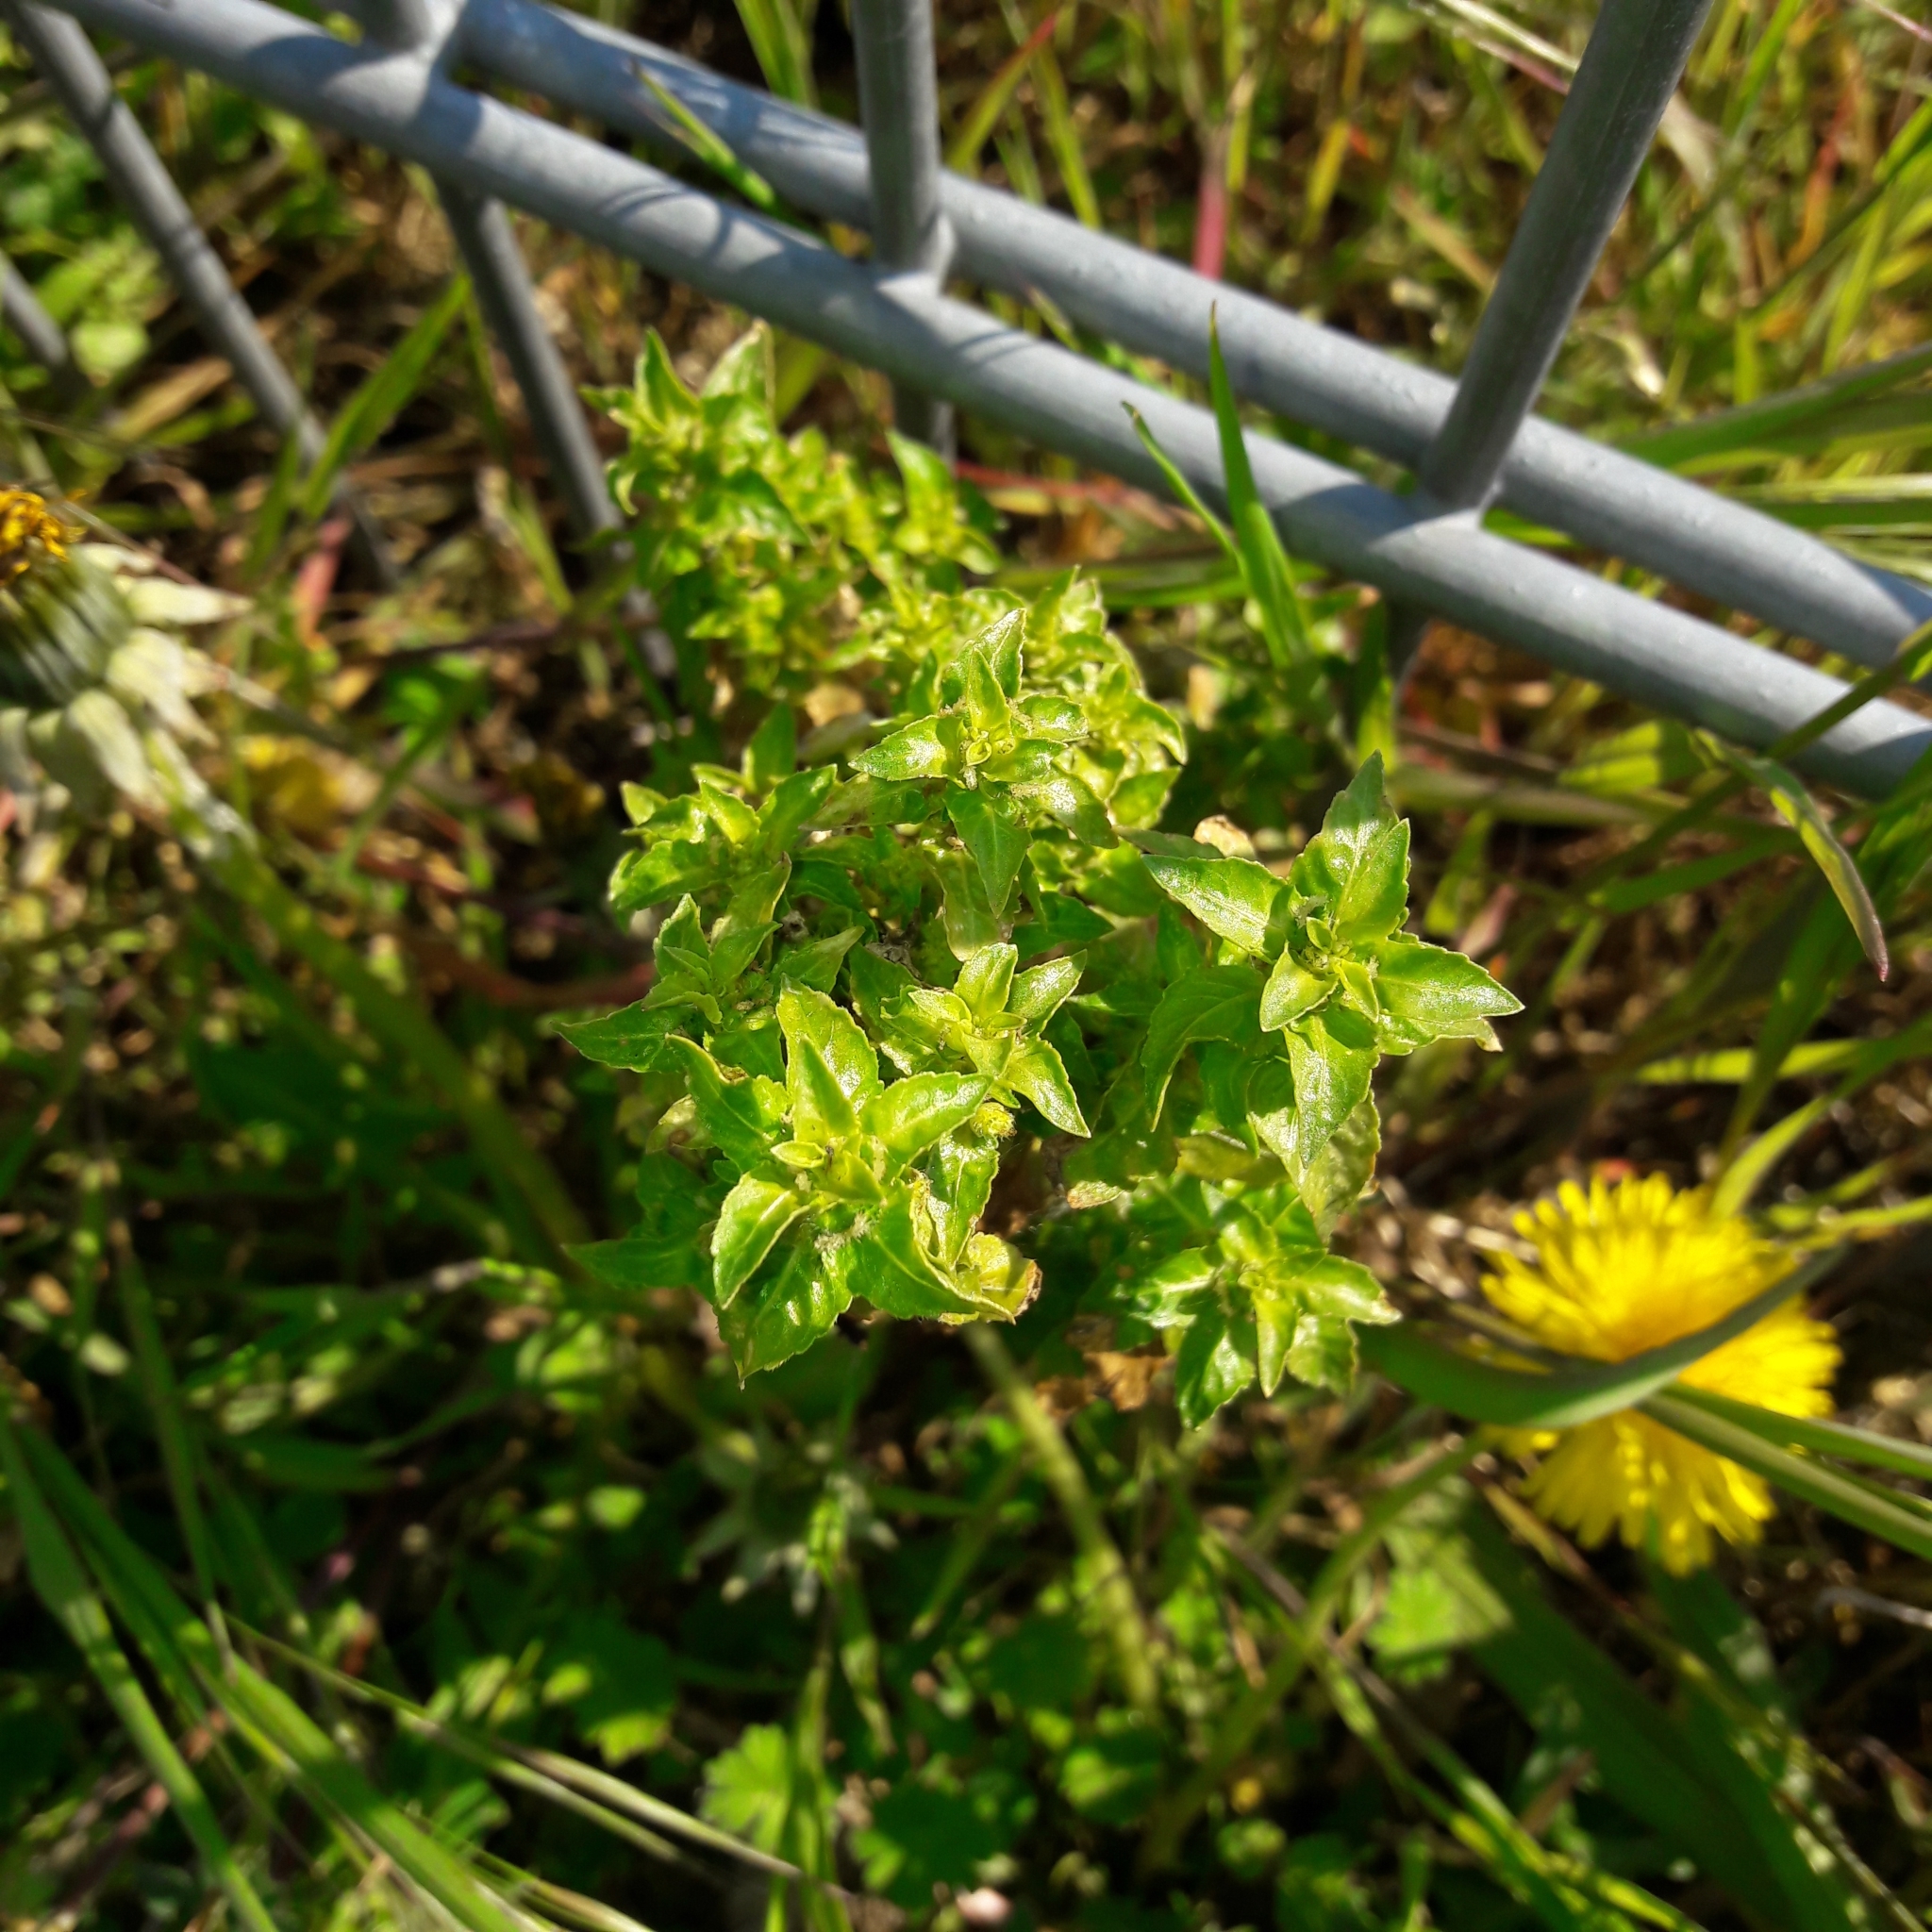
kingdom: Plantae
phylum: Tracheophyta
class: Magnoliopsida
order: Malpighiales
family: Euphorbiaceae
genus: Mercurialis
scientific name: Mercurialis annua
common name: Annual mercury
